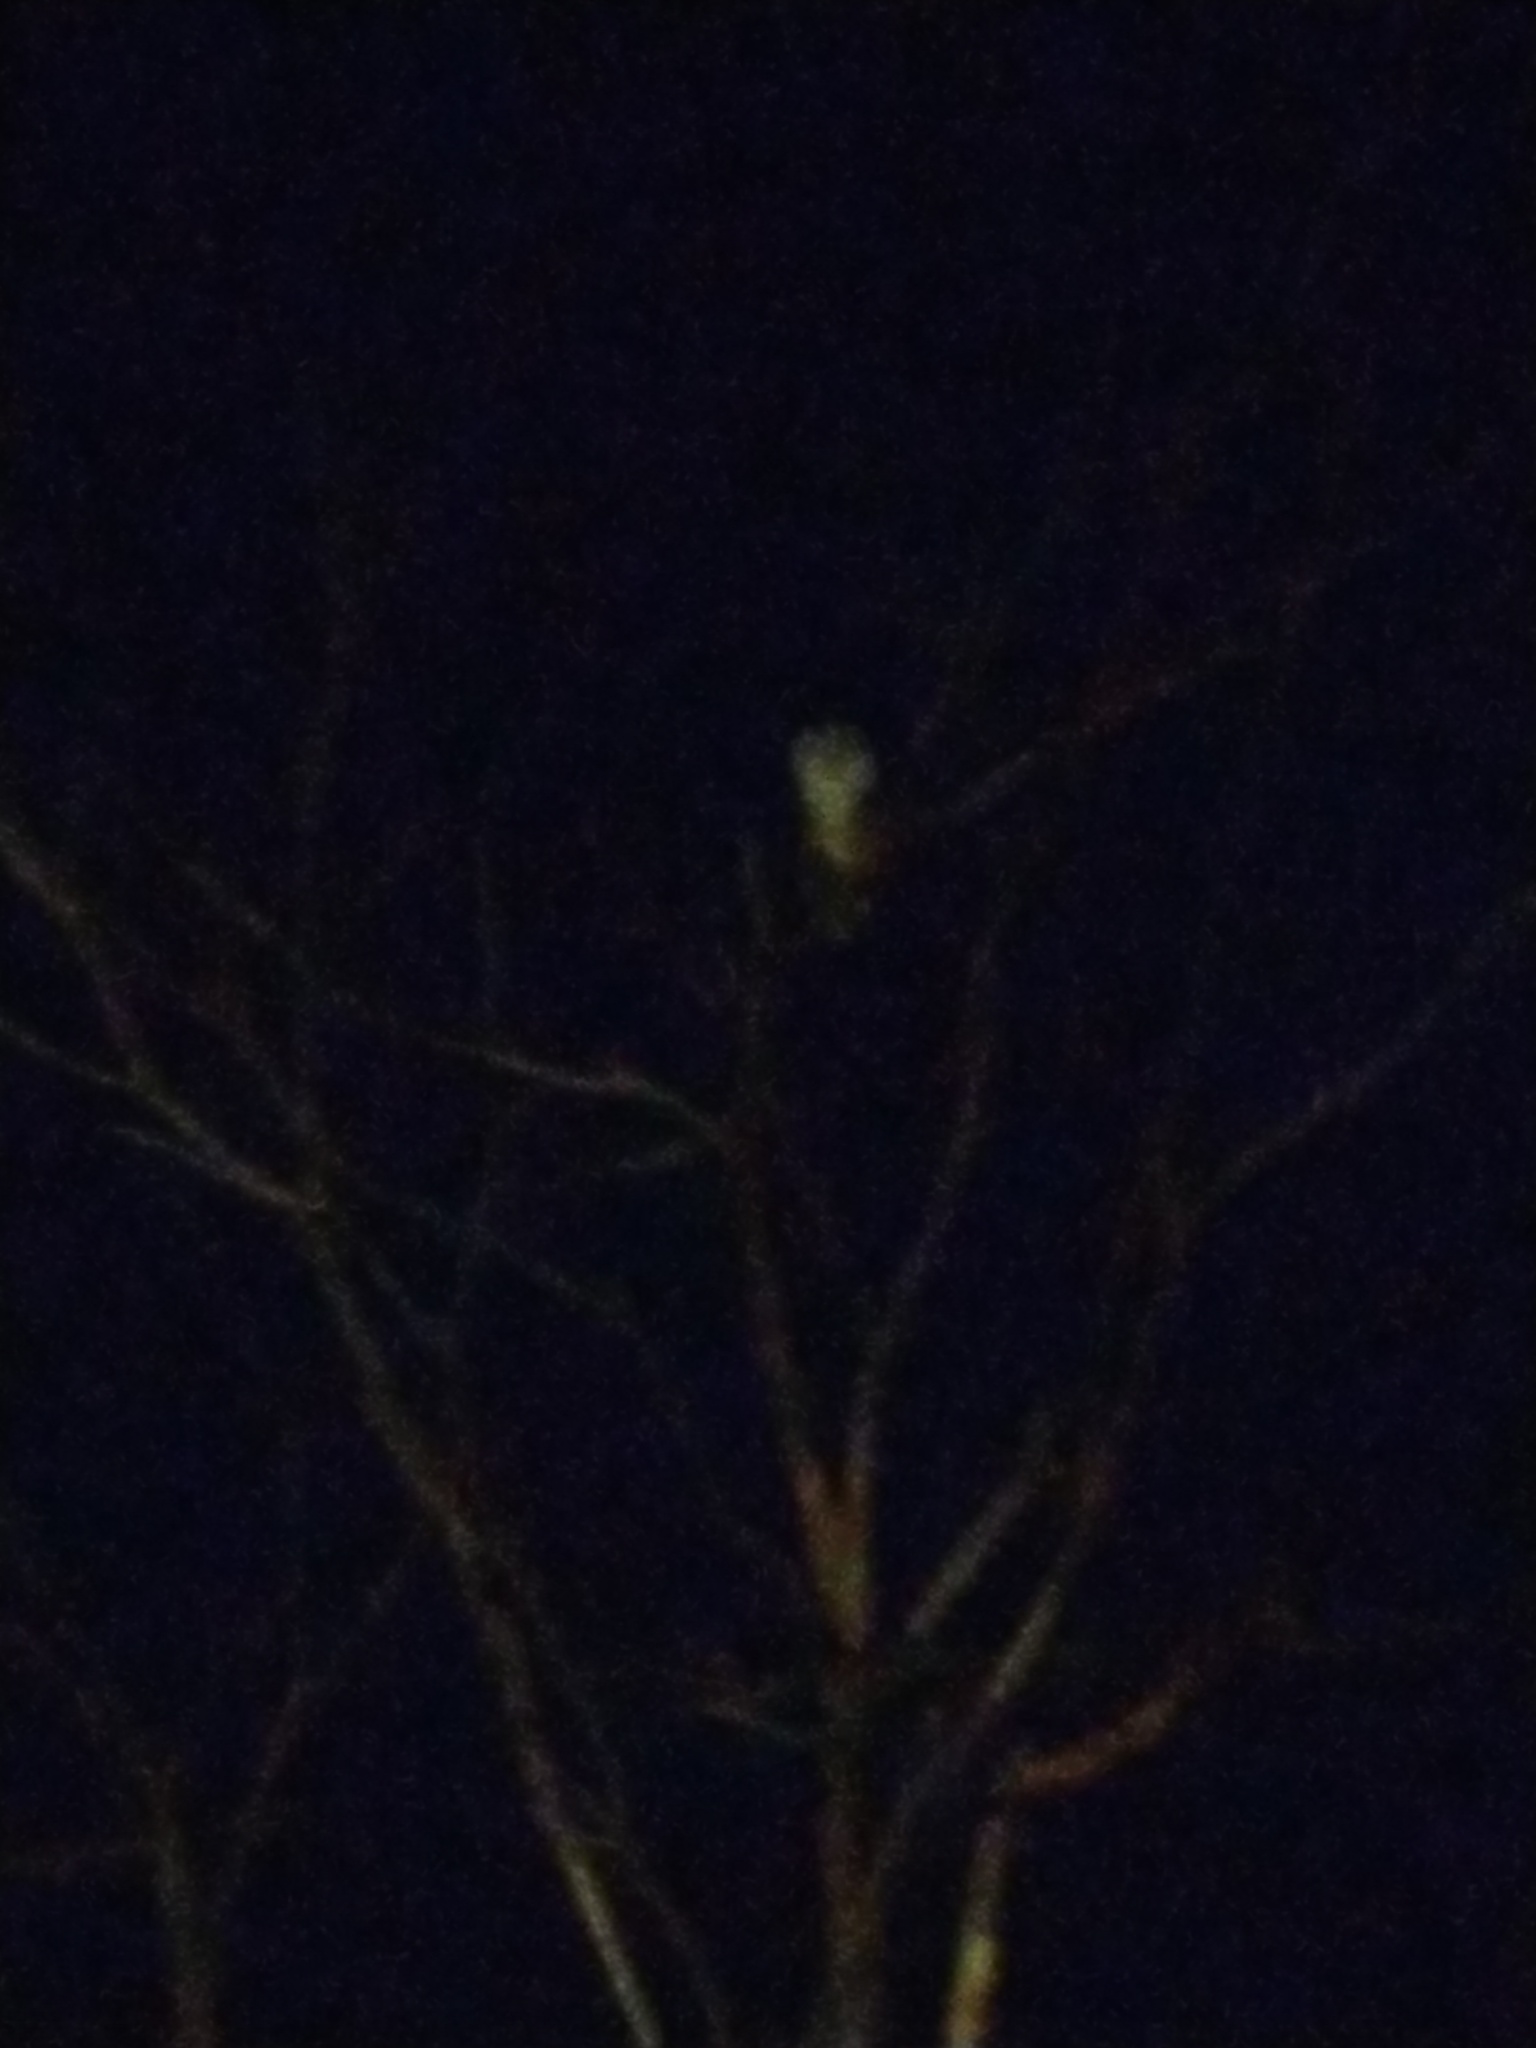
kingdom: Animalia
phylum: Chordata
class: Aves
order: Strigiformes
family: Tytonidae
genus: Tyto
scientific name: Tyto alba
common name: Barn owl
